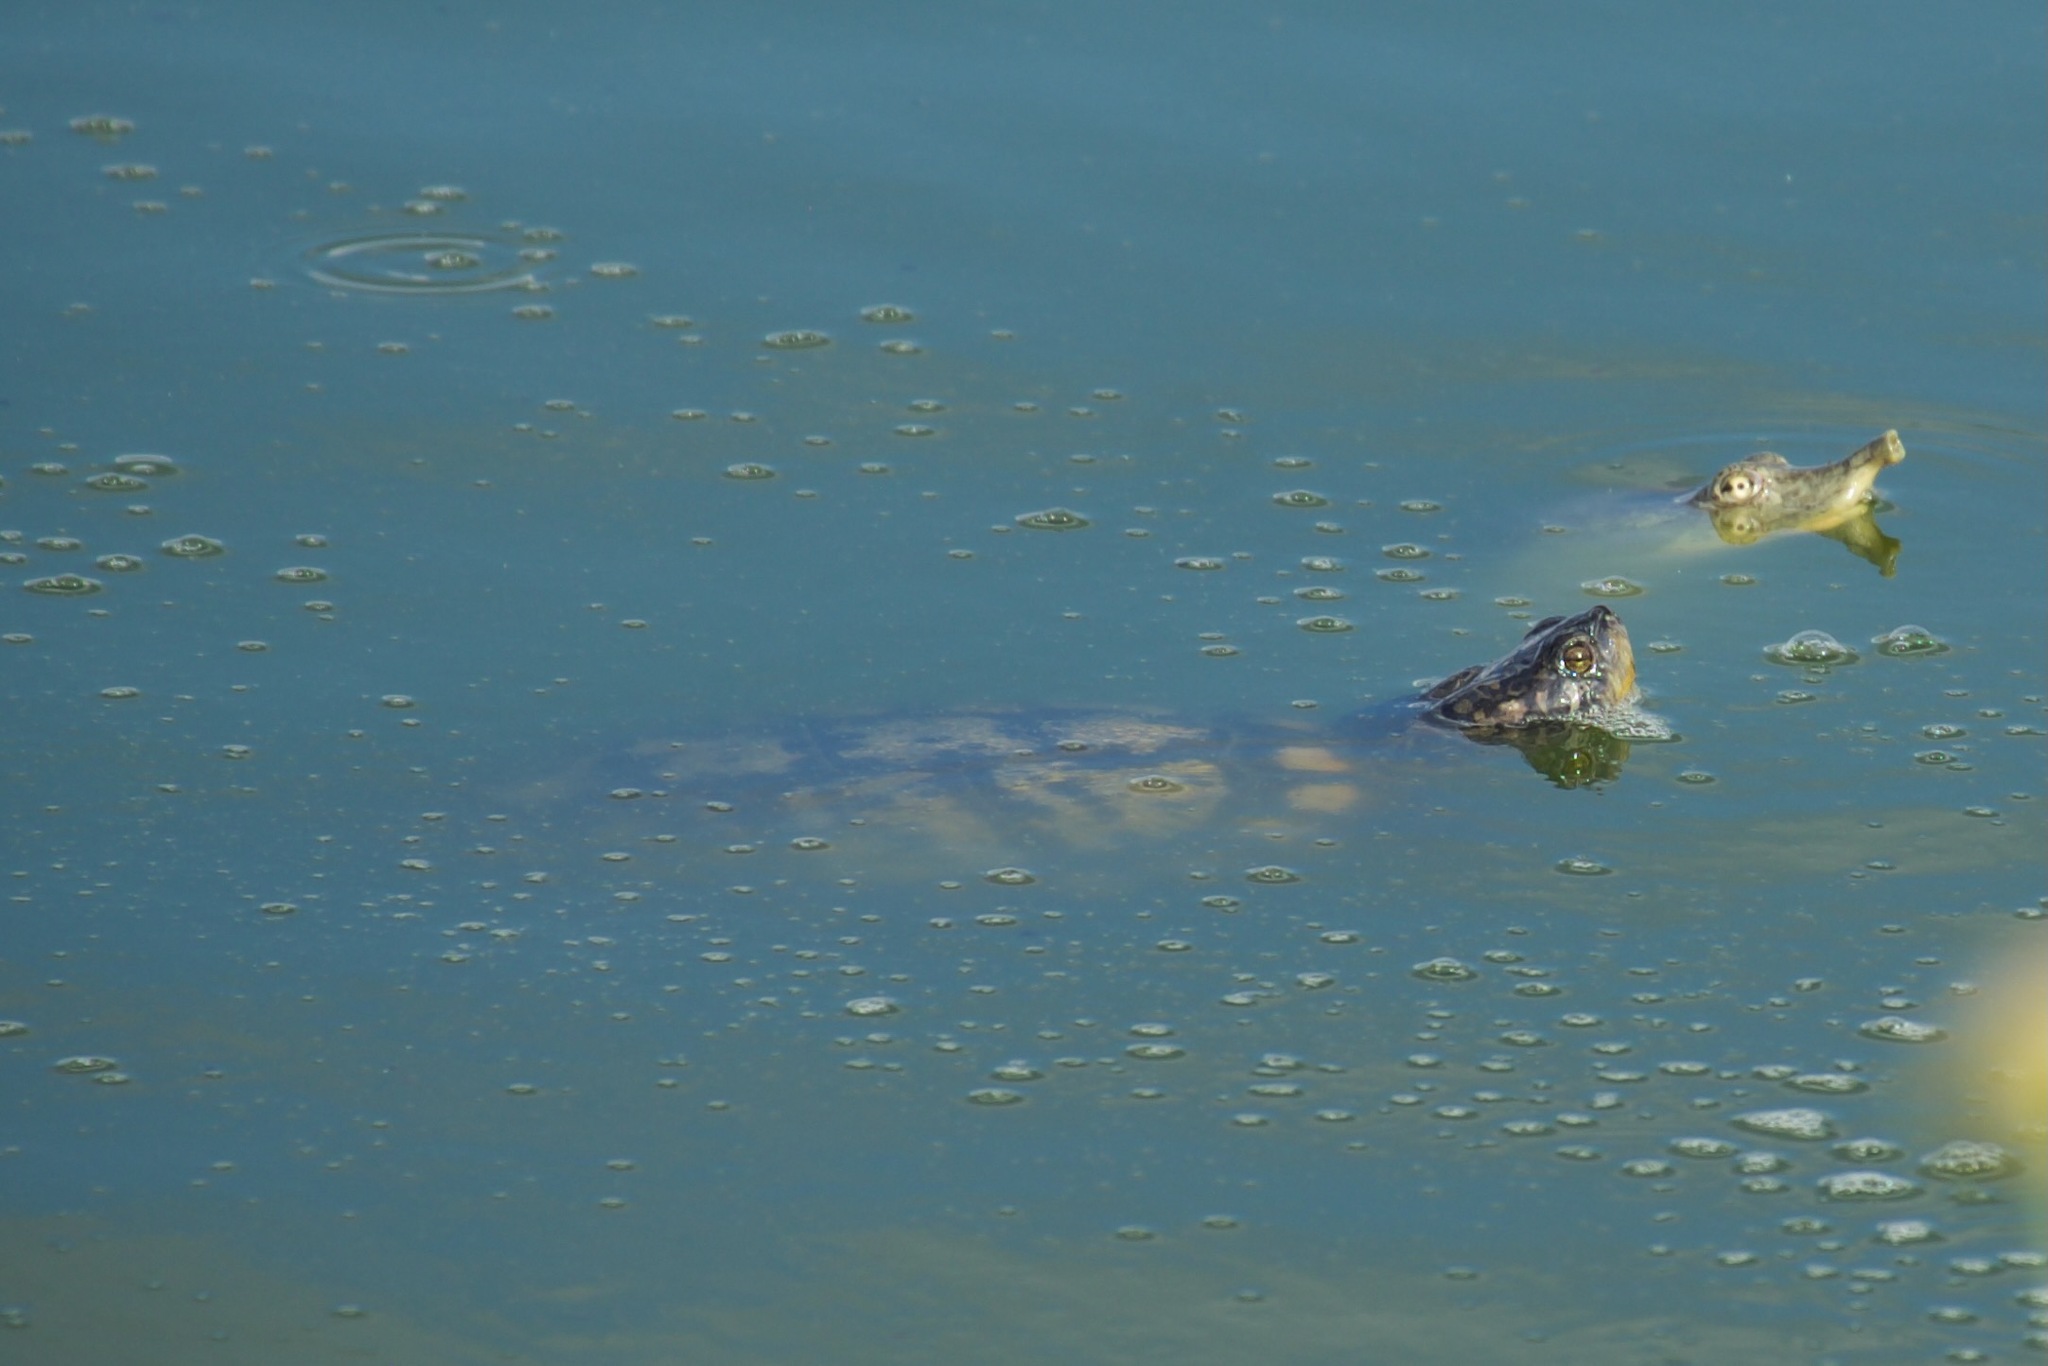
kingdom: Animalia
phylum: Chordata
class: Testudines
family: Emydidae
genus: Trachemys
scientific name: Trachemys scripta
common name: Slider
